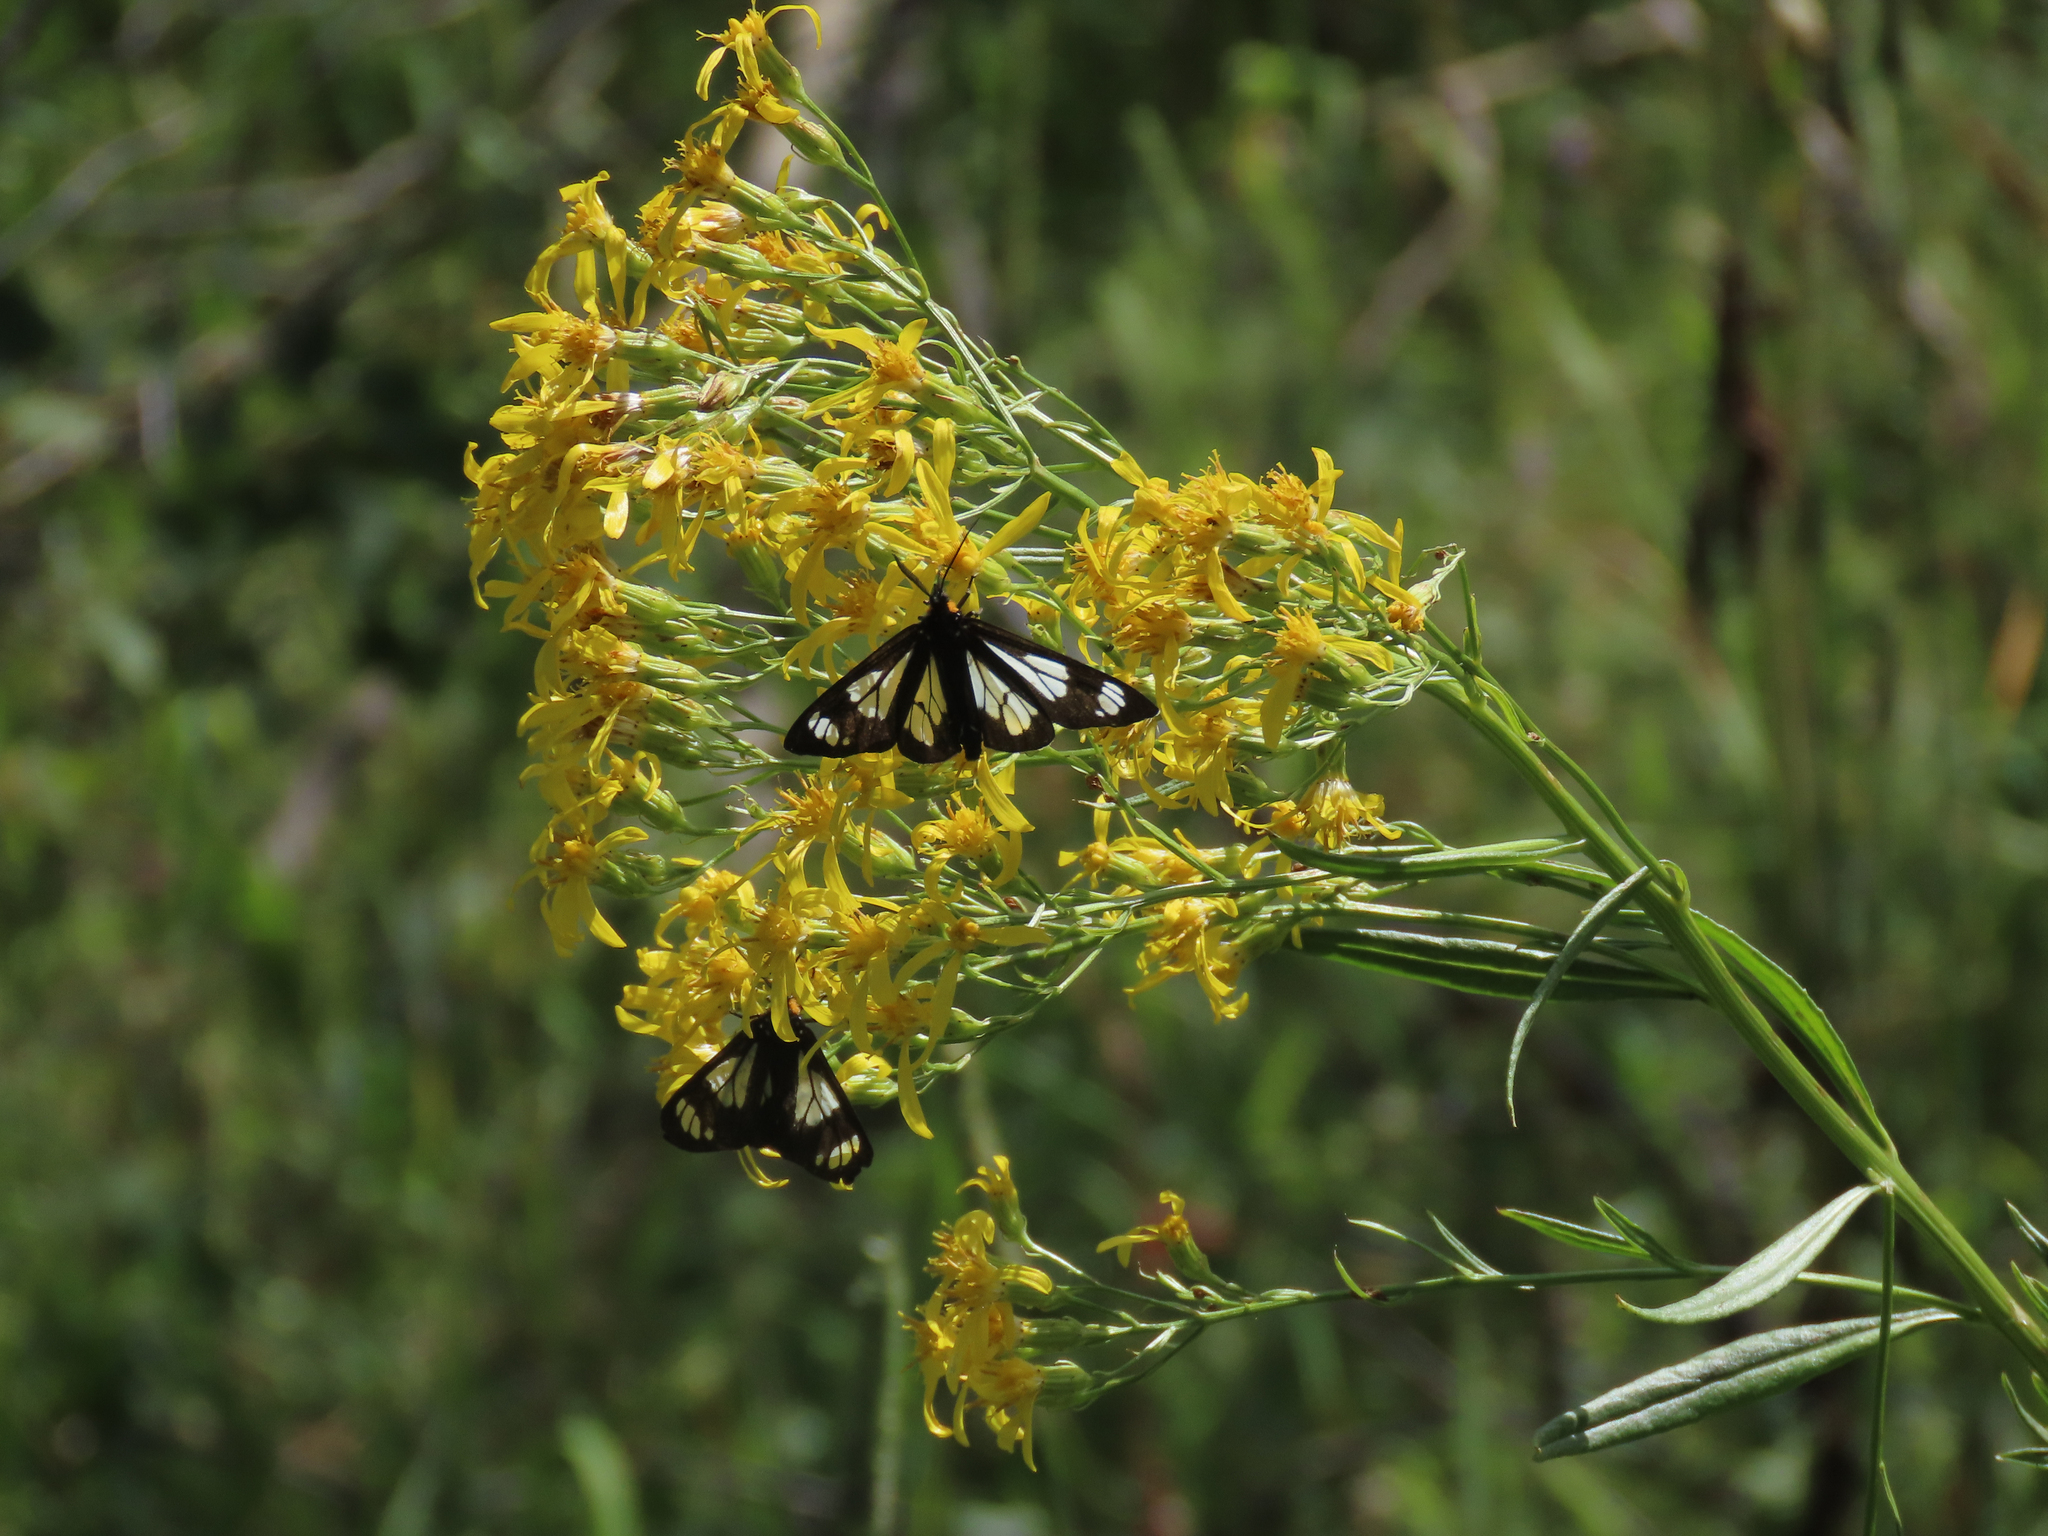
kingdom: Animalia
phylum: Arthropoda
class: Insecta
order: Lepidoptera
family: Erebidae
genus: Gnophaela
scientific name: Gnophaela vermiculata
